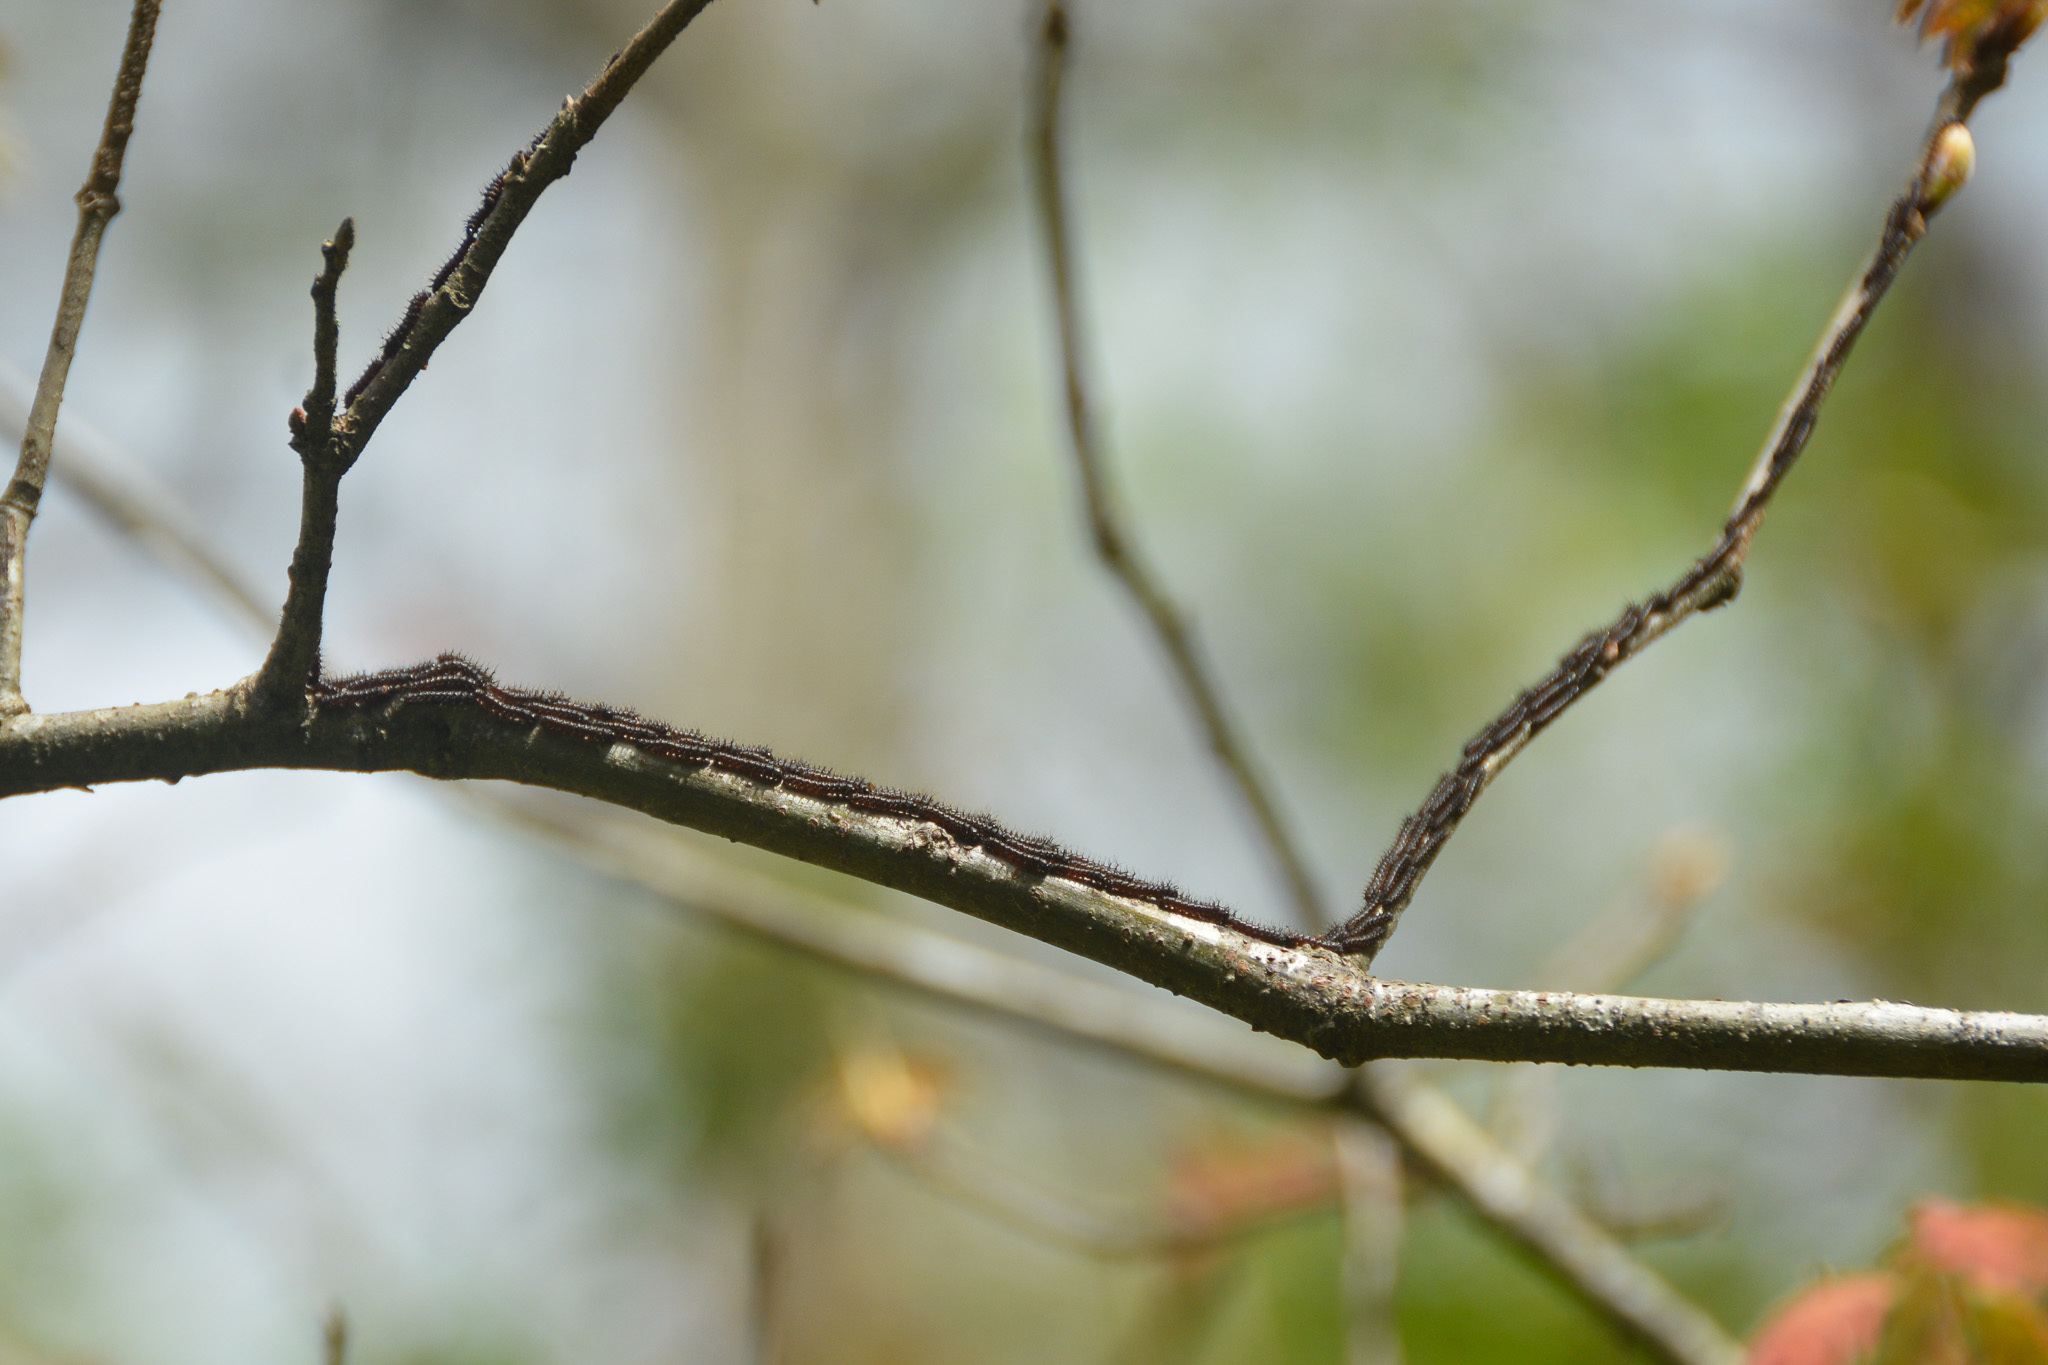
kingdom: Animalia
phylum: Arthropoda
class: Insecta
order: Lepidoptera
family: Saturniidae
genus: Hemileuca
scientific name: Hemileuca maia
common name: Eastern buckmoth
